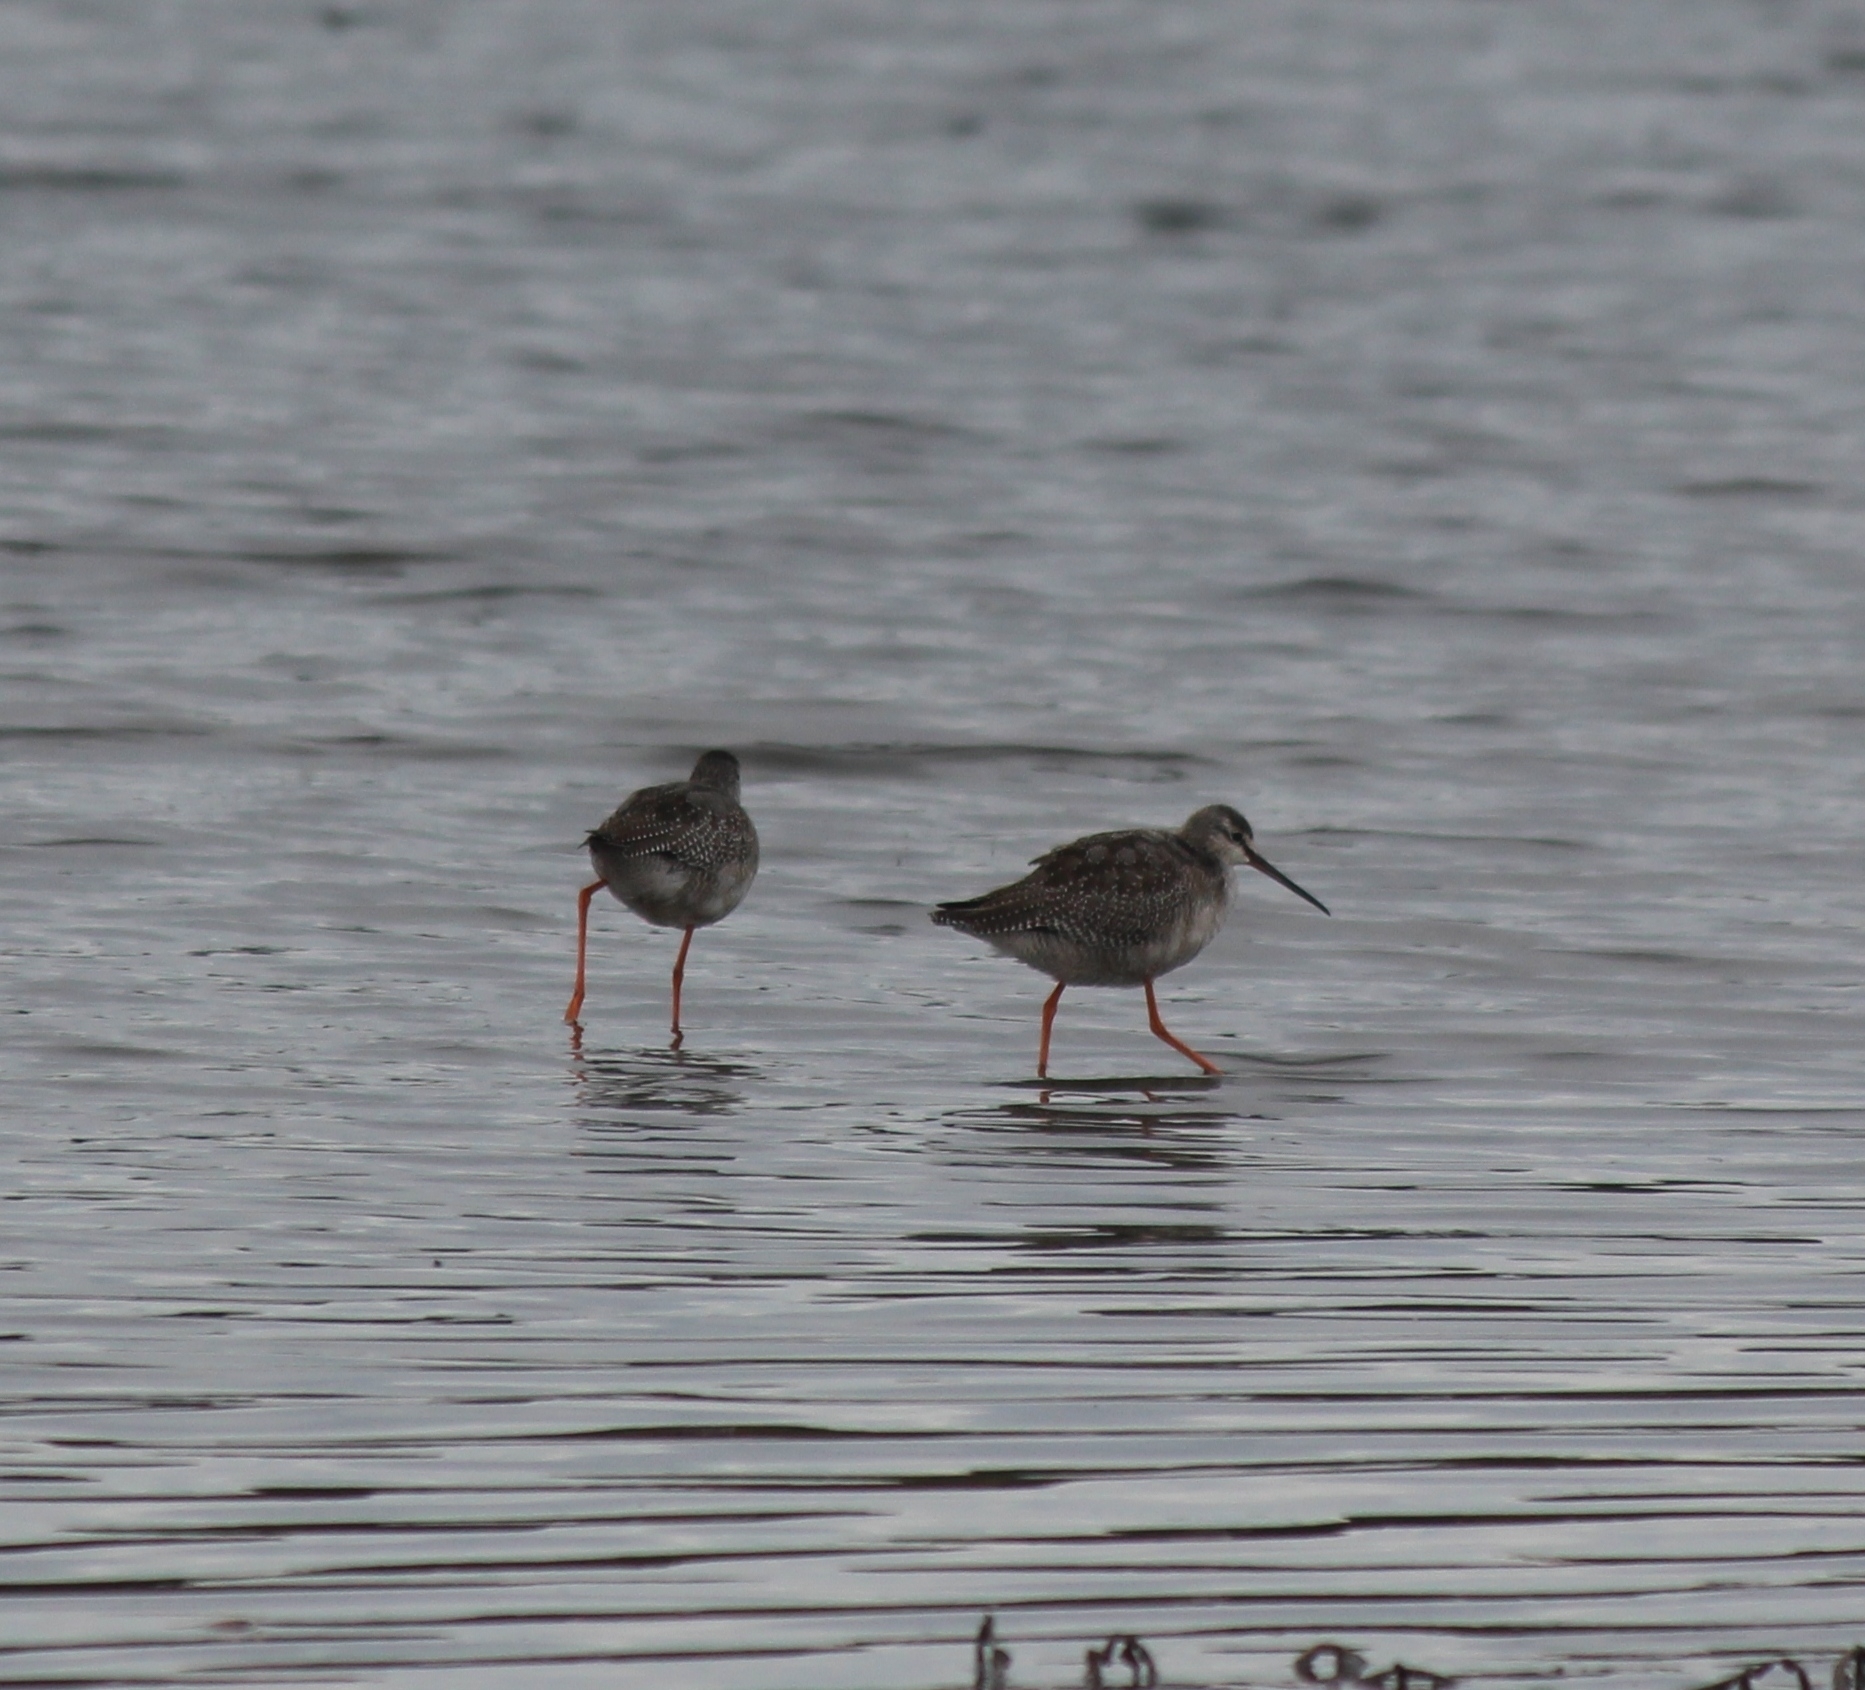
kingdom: Animalia
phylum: Chordata
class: Aves
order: Charadriiformes
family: Scolopacidae
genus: Tringa
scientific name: Tringa erythropus
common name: Spotted redshank
